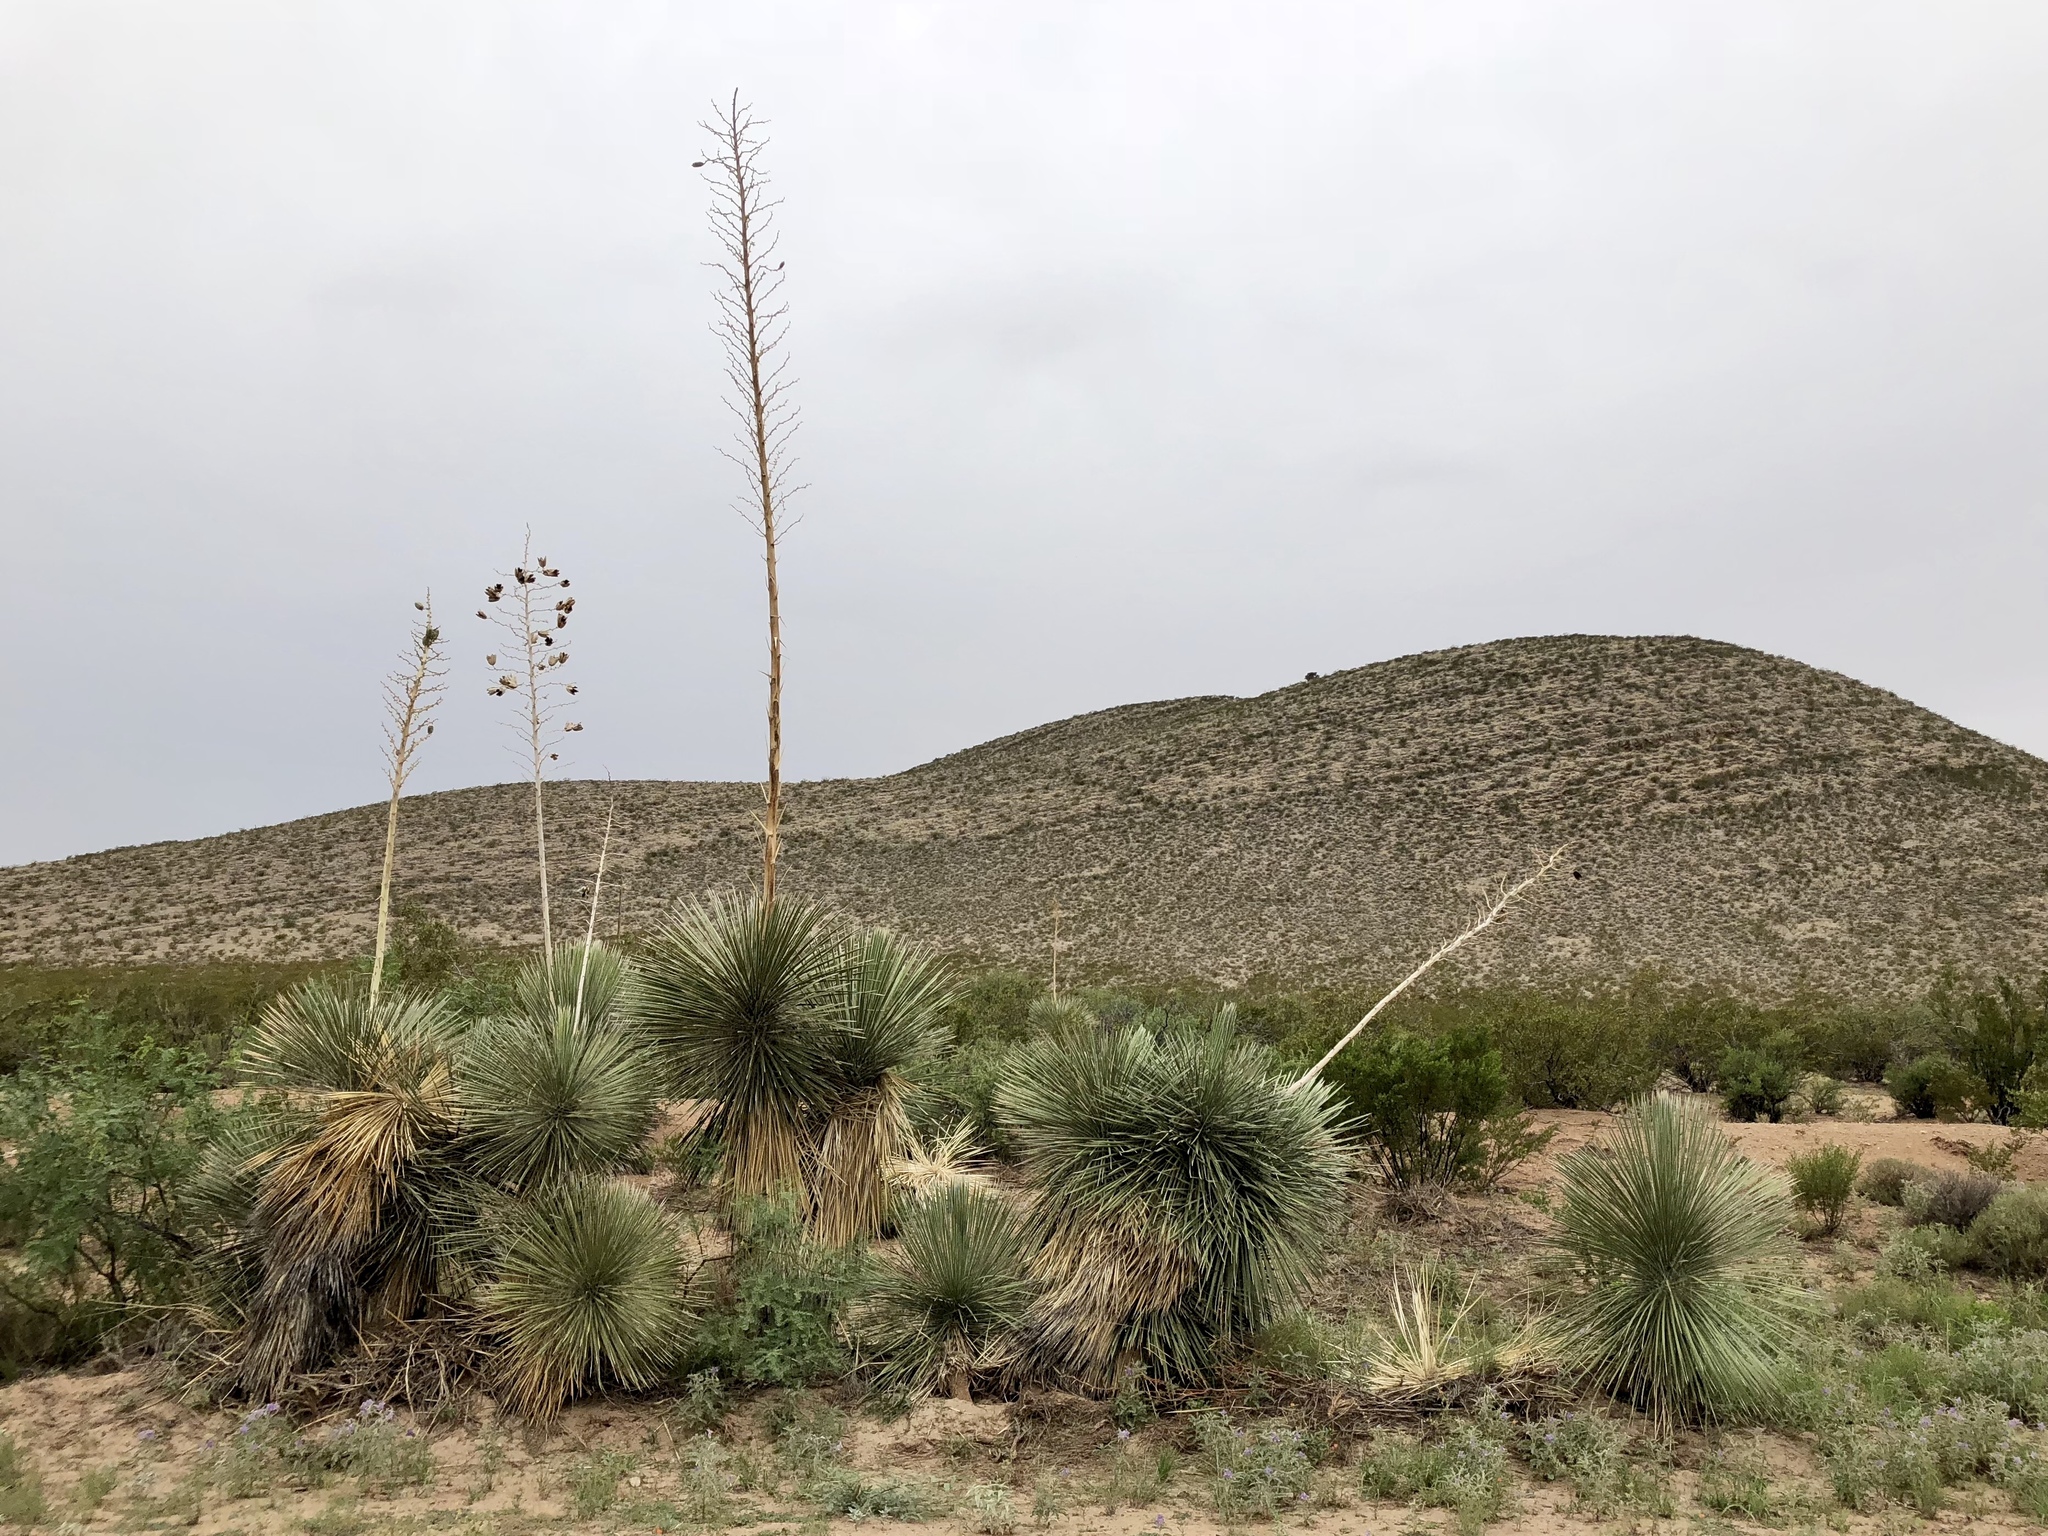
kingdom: Plantae
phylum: Tracheophyta
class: Liliopsida
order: Asparagales
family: Asparagaceae
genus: Yucca
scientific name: Yucca elata
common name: Palmella
